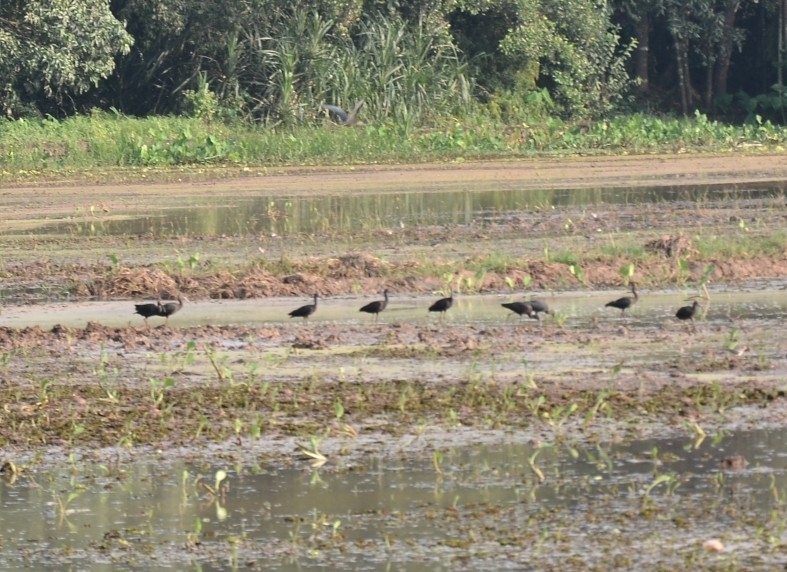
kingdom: Animalia
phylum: Chordata
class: Aves
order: Pelecaniformes
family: Threskiornithidae
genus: Plegadis
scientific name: Plegadis falcinellus
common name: Glossy ibis
